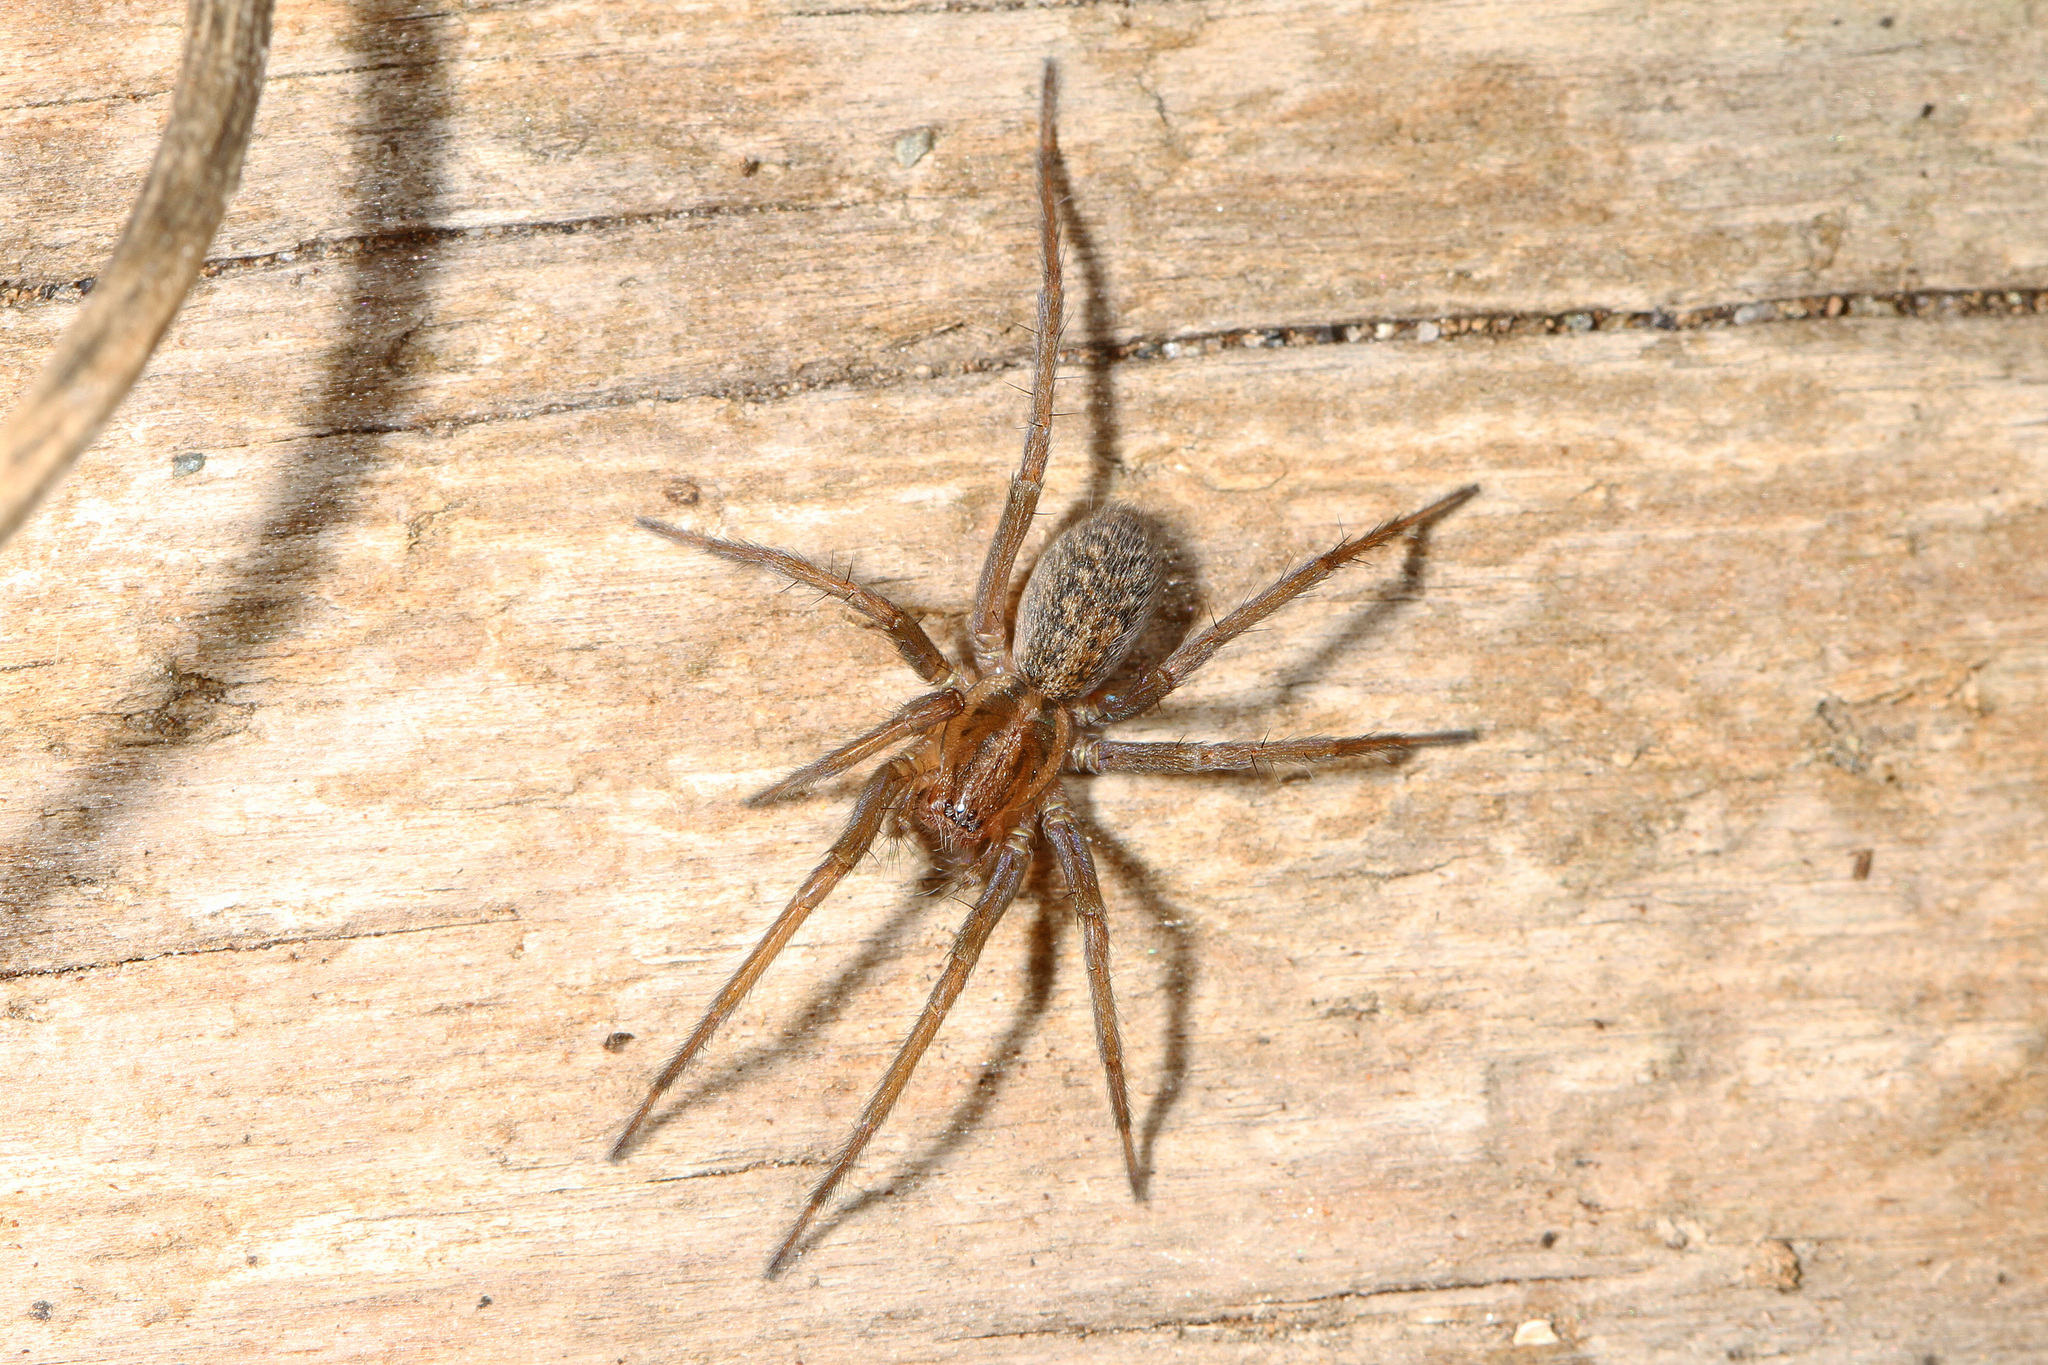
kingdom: Animalia
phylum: Arthropoda
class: Arachnida
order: Araneae
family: Agelenidae
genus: Eratigena
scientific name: Eratigena agrestis
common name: Hobo spider
